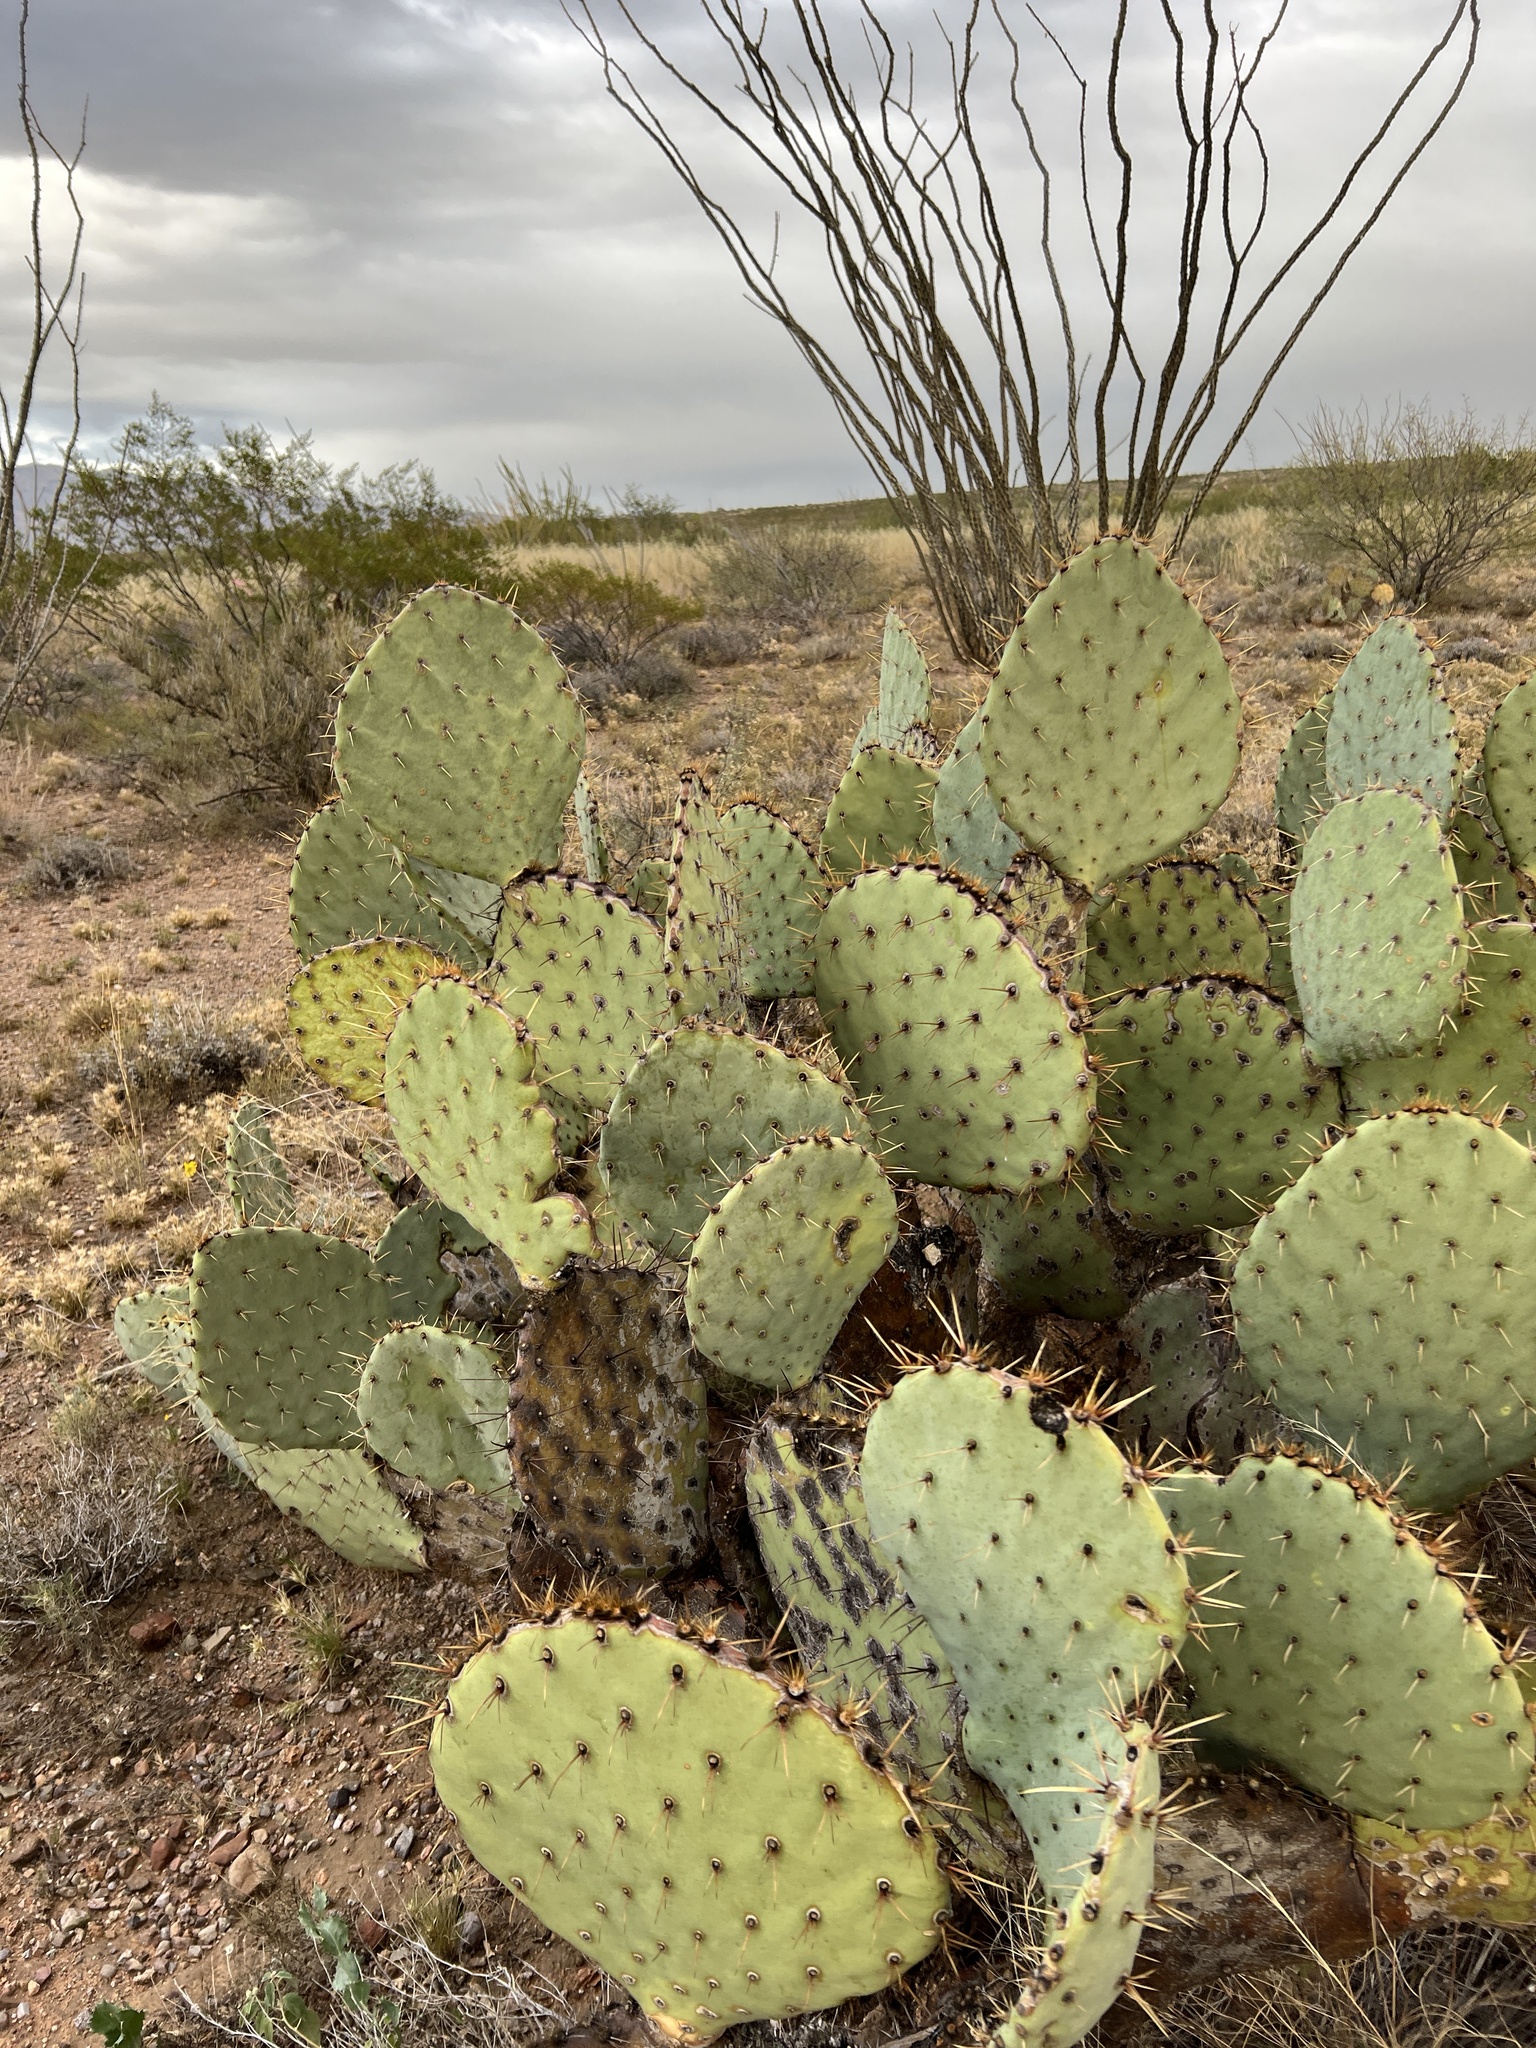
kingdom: Plantae
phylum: Tracheophyta
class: Magnoliopsida
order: Caryophyllales
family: Cactaceae
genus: Opuntia
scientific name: Opuntia engelmannii
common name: Cactus-apple
